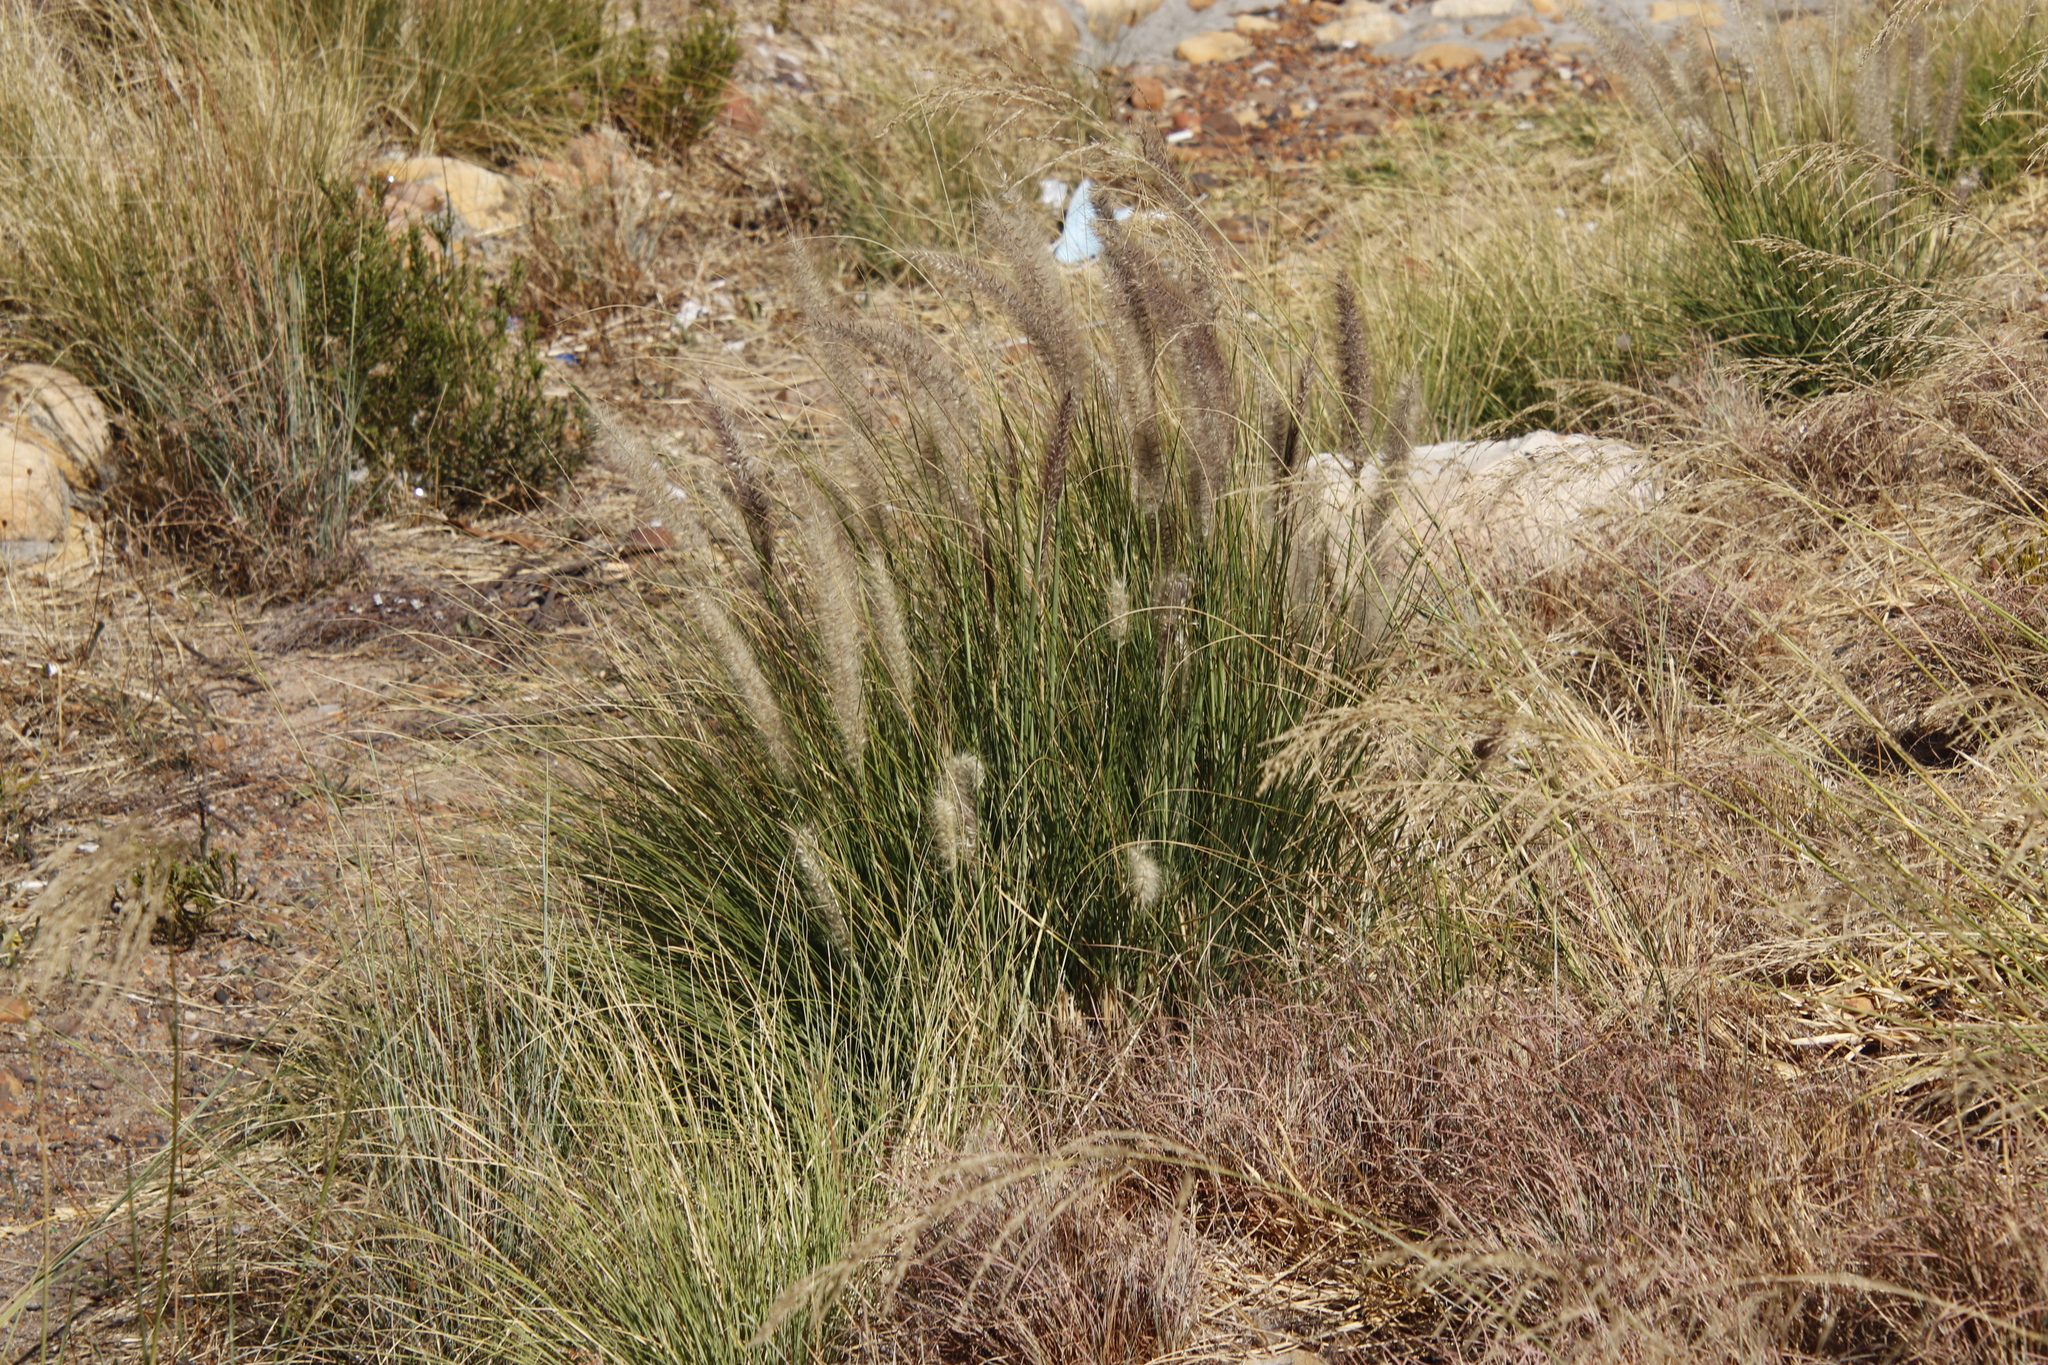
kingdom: Plantae
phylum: Tracheophyta
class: Liliopsida
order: Poales
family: Poaceae
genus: Cenchrus
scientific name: Cenchrus setaceus
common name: Crimson fountaingrass
